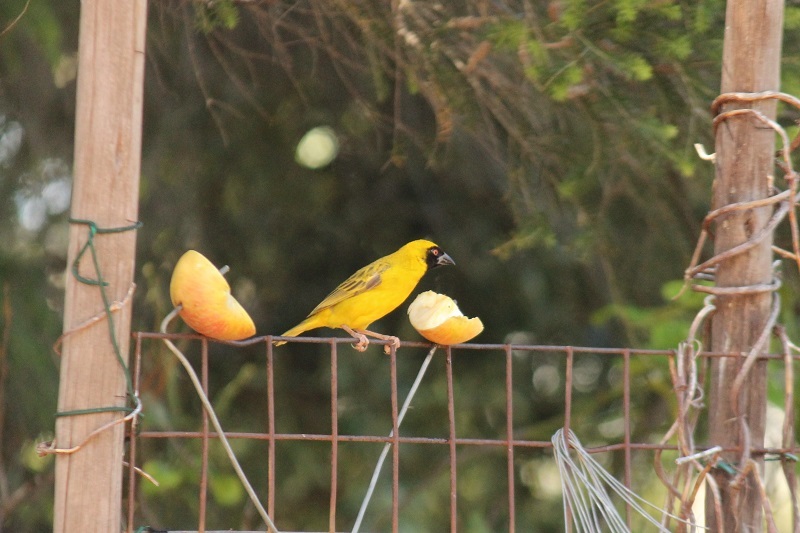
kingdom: Animalia
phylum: Chordata
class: Aves
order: Passeriformes
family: Ploceidae
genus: Ploceus
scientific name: Ploceus velatus
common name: Southern masked weaver
